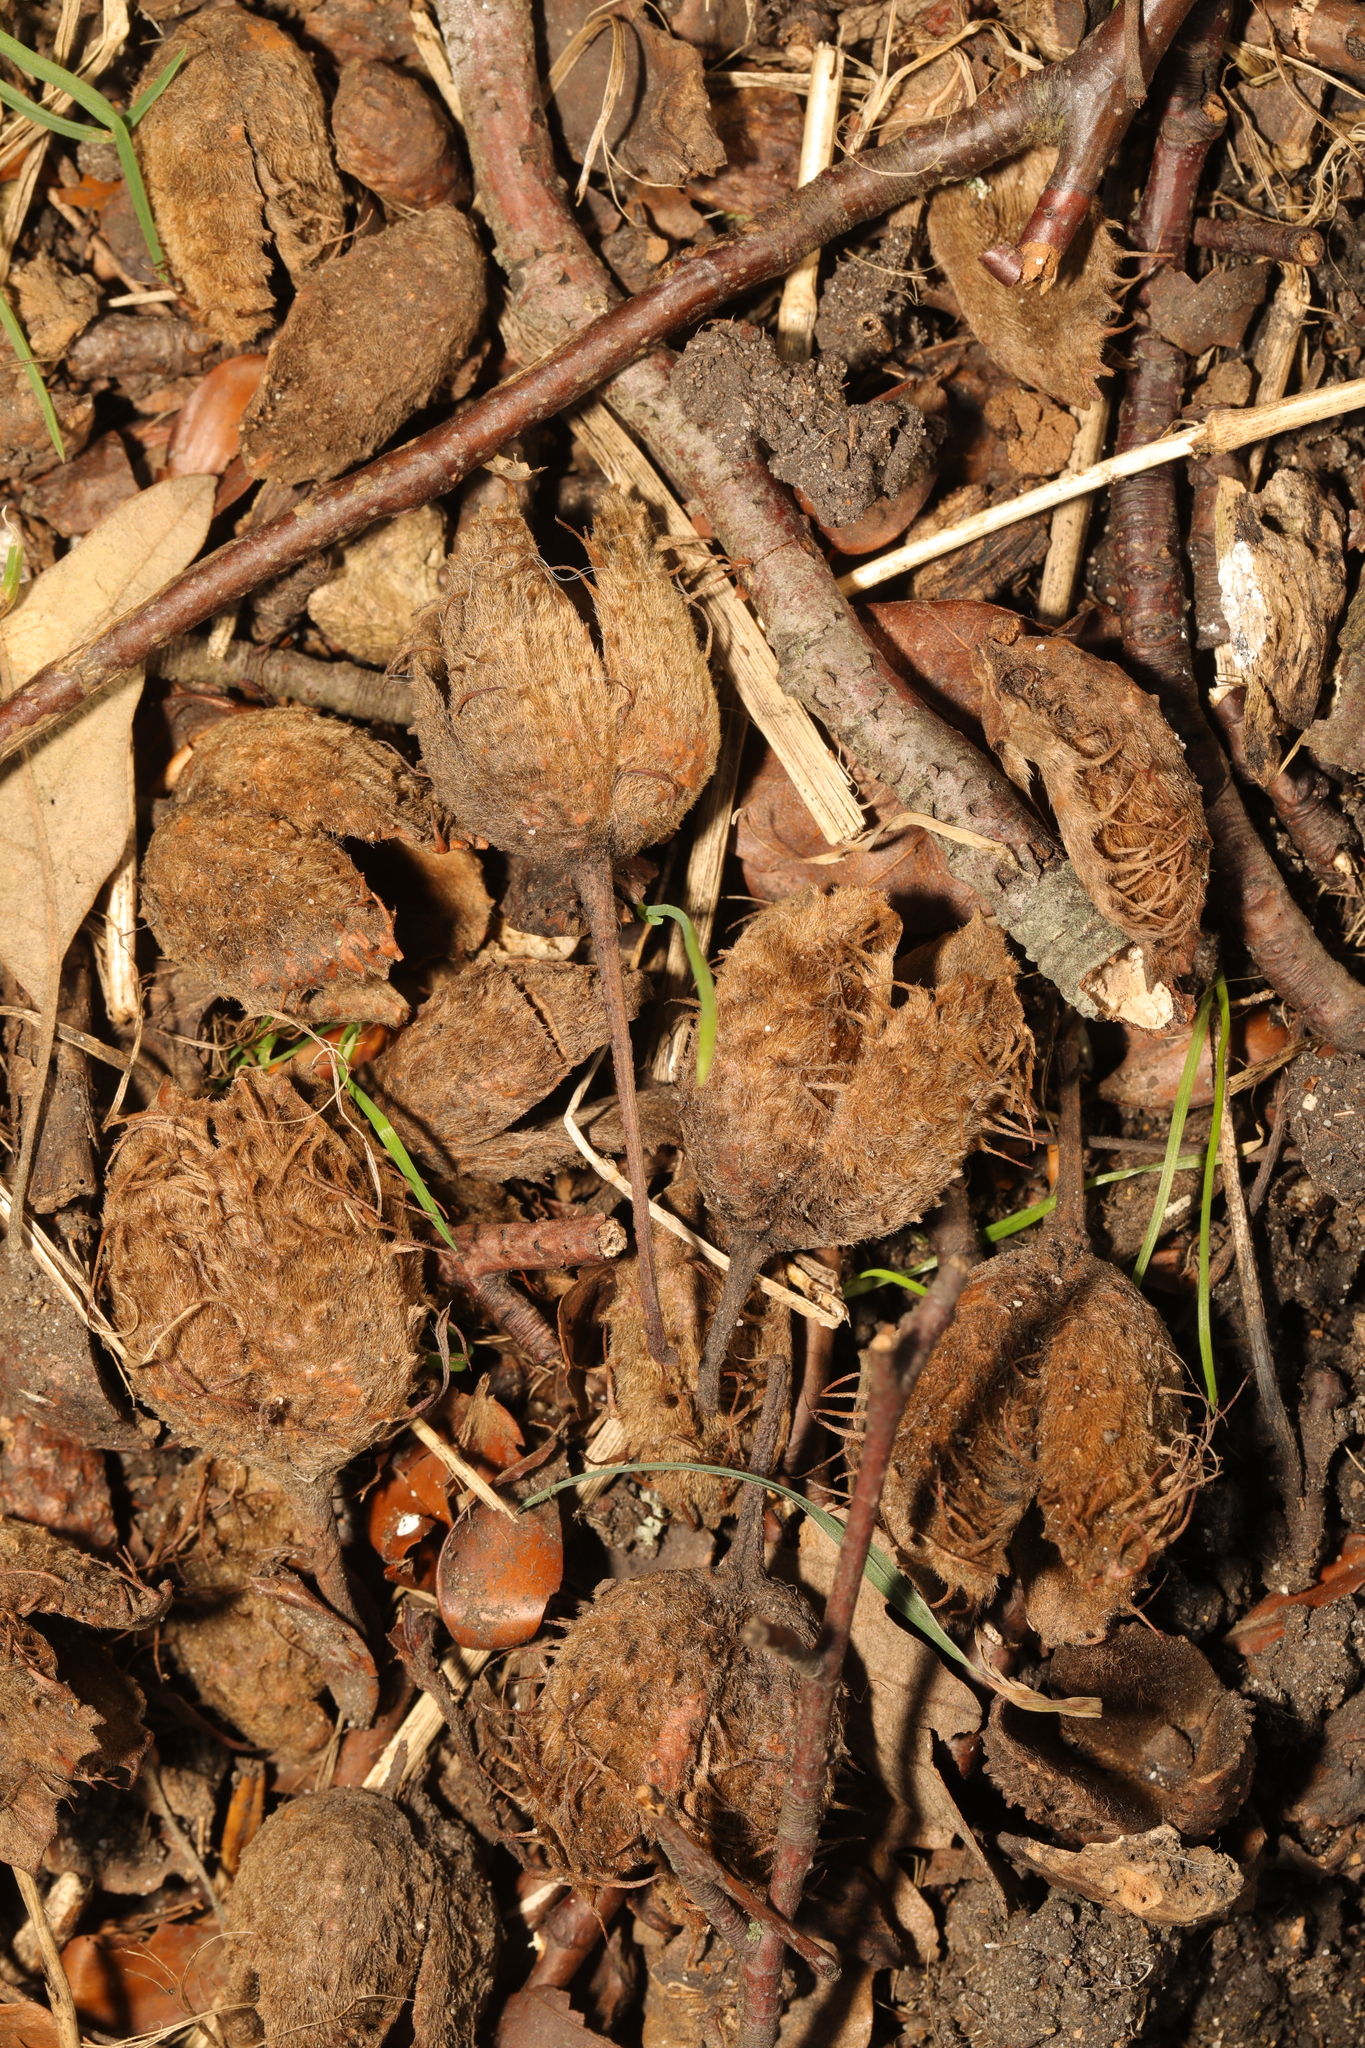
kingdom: Plantae
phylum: Tracheophyta
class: Magnoliopsida
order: Fagales
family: Fagaceae
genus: Fagus
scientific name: Fagus sylvatica
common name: Beech
